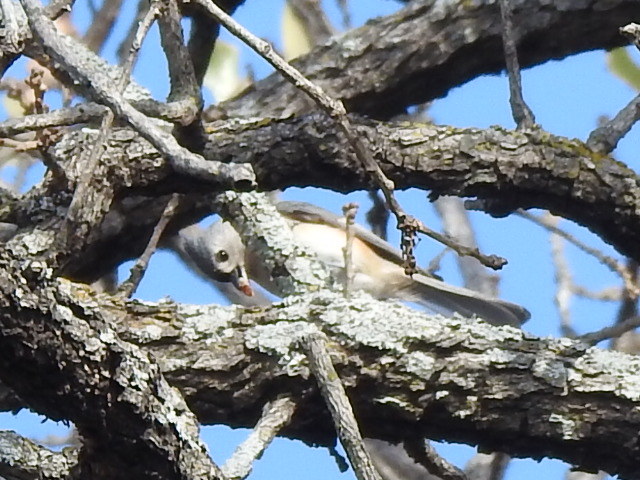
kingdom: Animalia
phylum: Chordata
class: Aves
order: Passeriformes
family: Paridae
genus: Baeolophus
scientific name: Baeolophus bicolor
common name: Tufted titmouse
